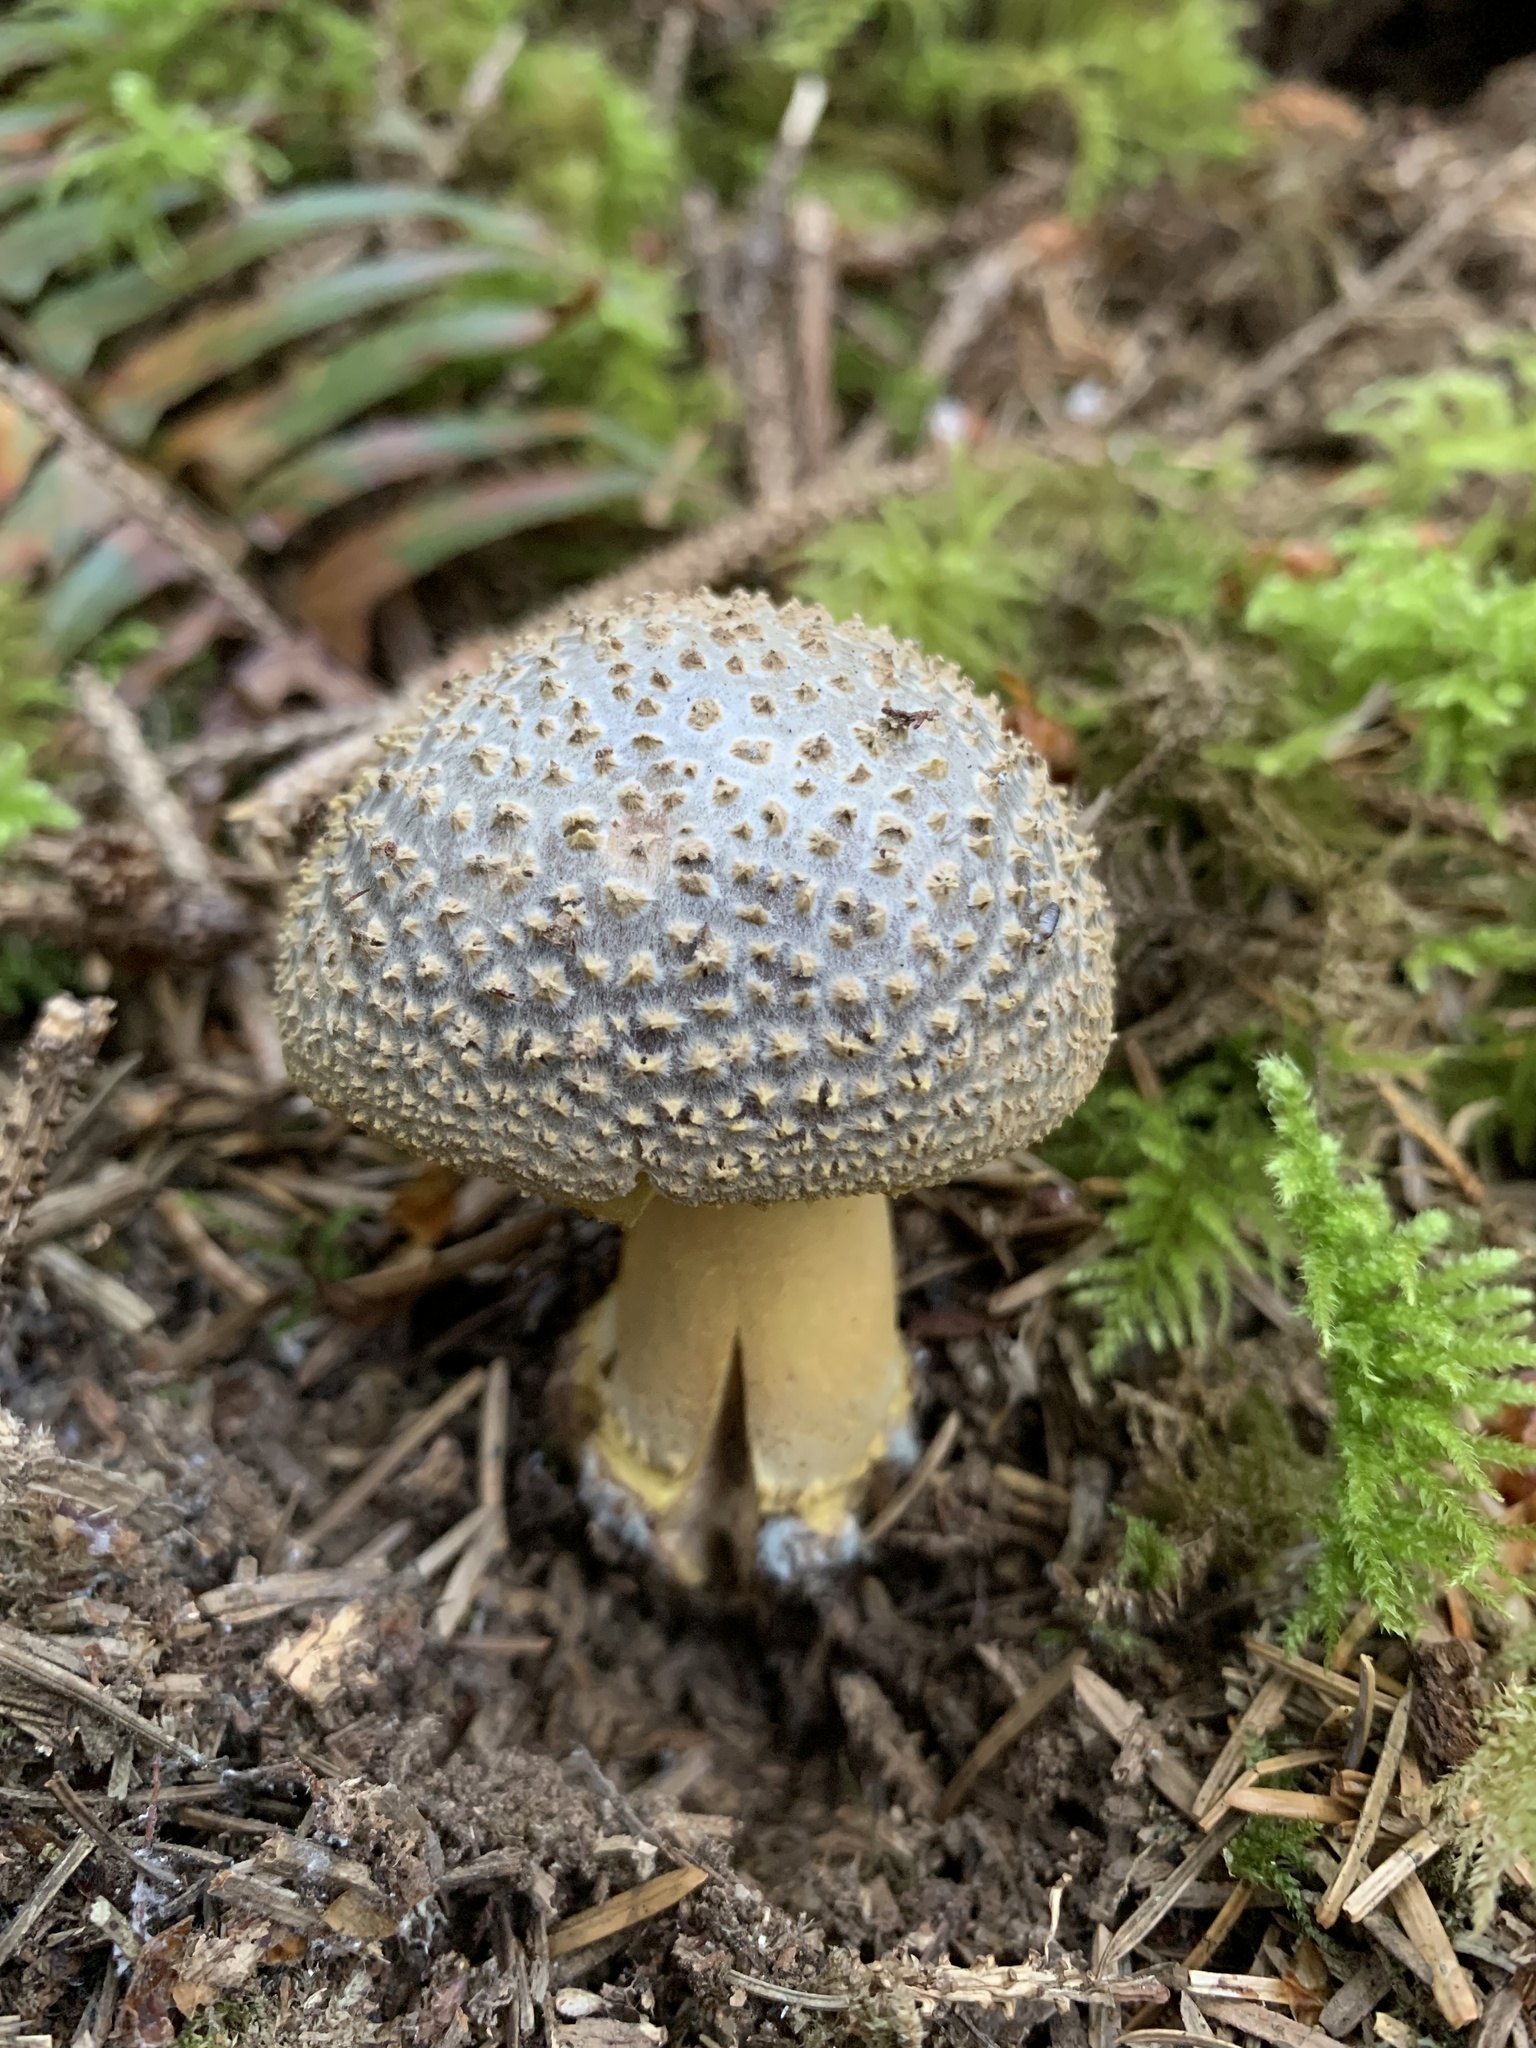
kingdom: Fungi
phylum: Basidiomycota
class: Agaricomycetes
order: Agaricales
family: Amanitaceae
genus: Amanita
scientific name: Amanita augusta
